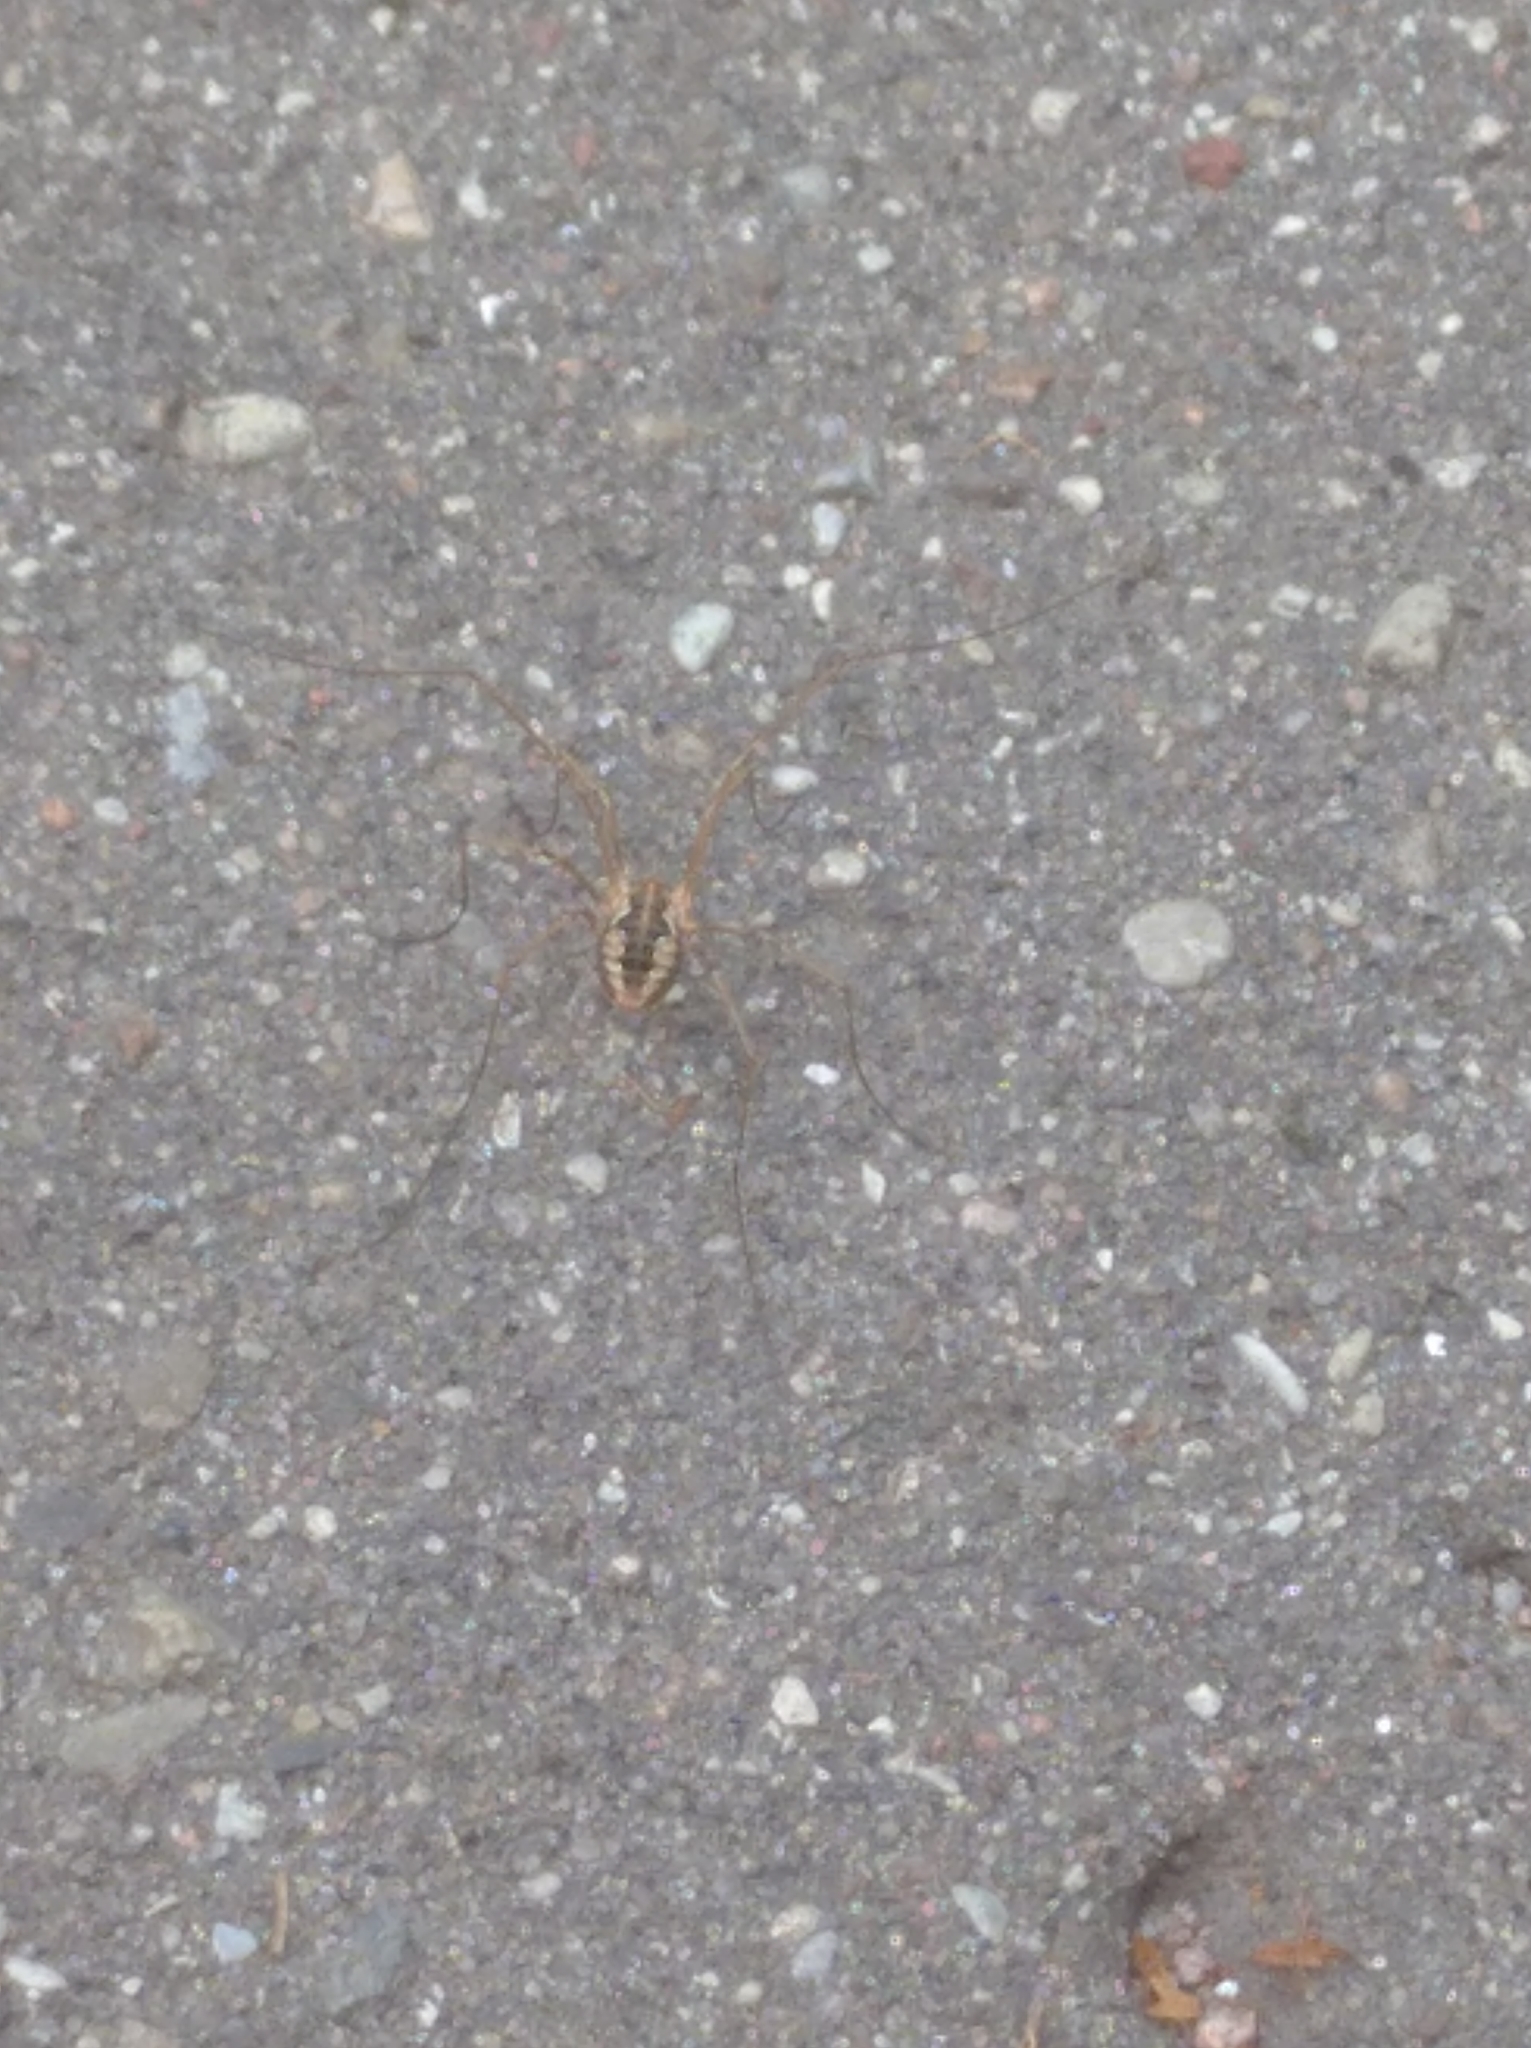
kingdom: Animalia
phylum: Arthropoda
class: Arachnida
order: Opiliones
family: Phalangiidae
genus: Phalangium
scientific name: Phalangium opilio
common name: Daddy longleg
